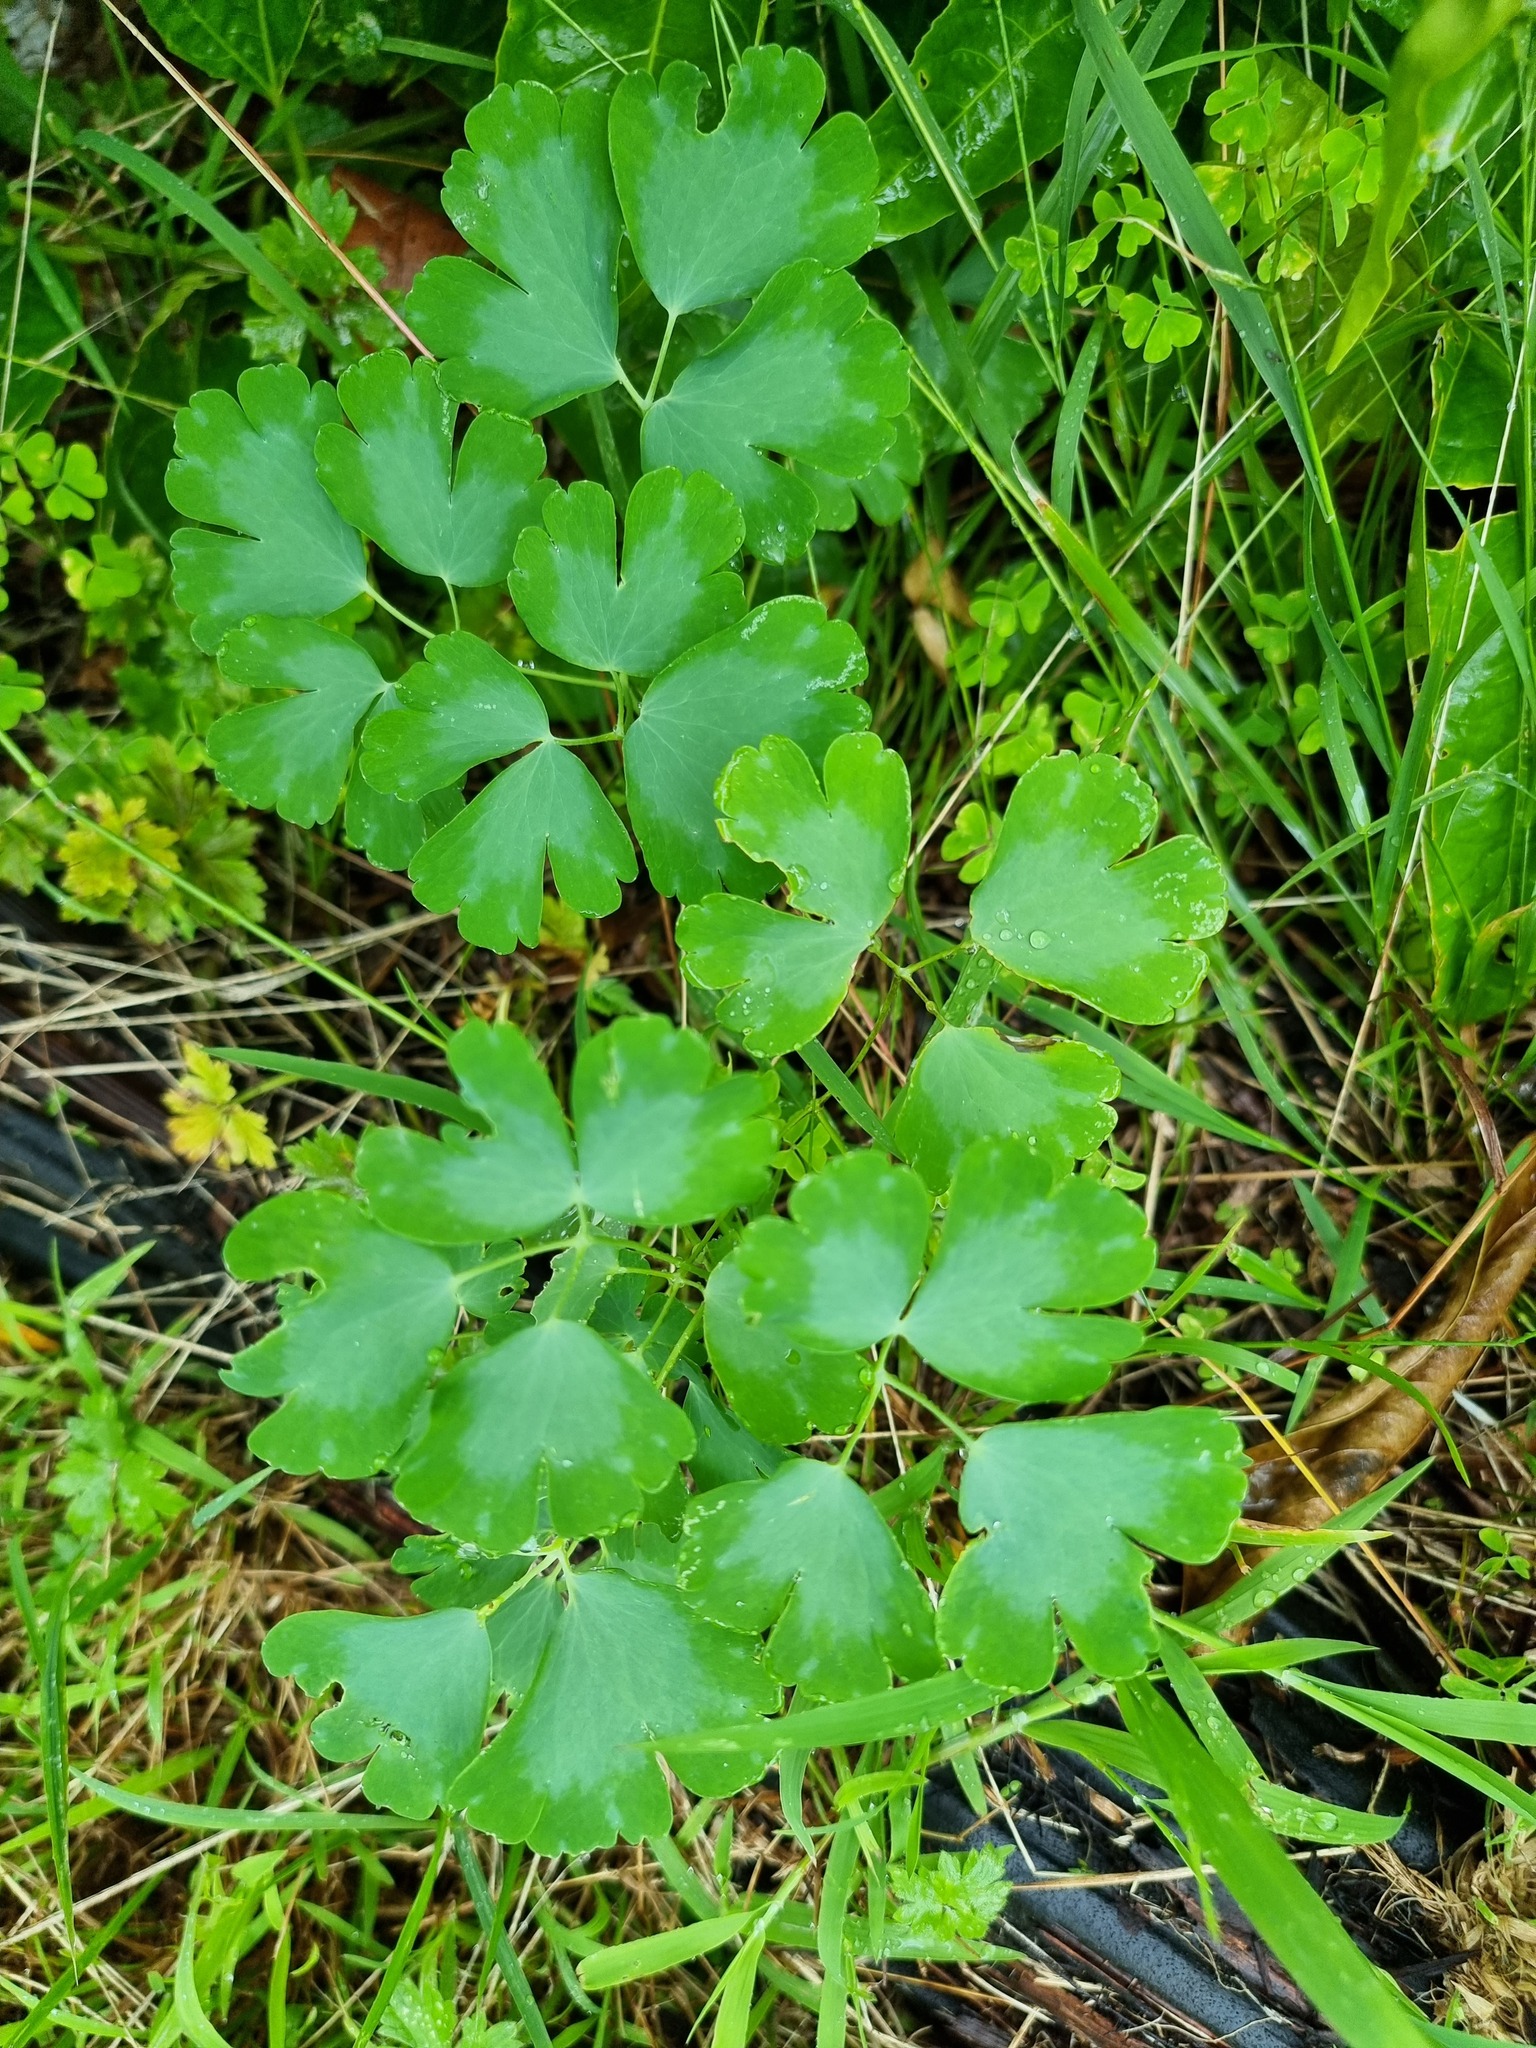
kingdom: Plantae
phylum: Tracheophyta
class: Magnoliopsida
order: Ranunculales
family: Ranunculaceae
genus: Aquilegia
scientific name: Aquilegia vulgaris
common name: Columbine
